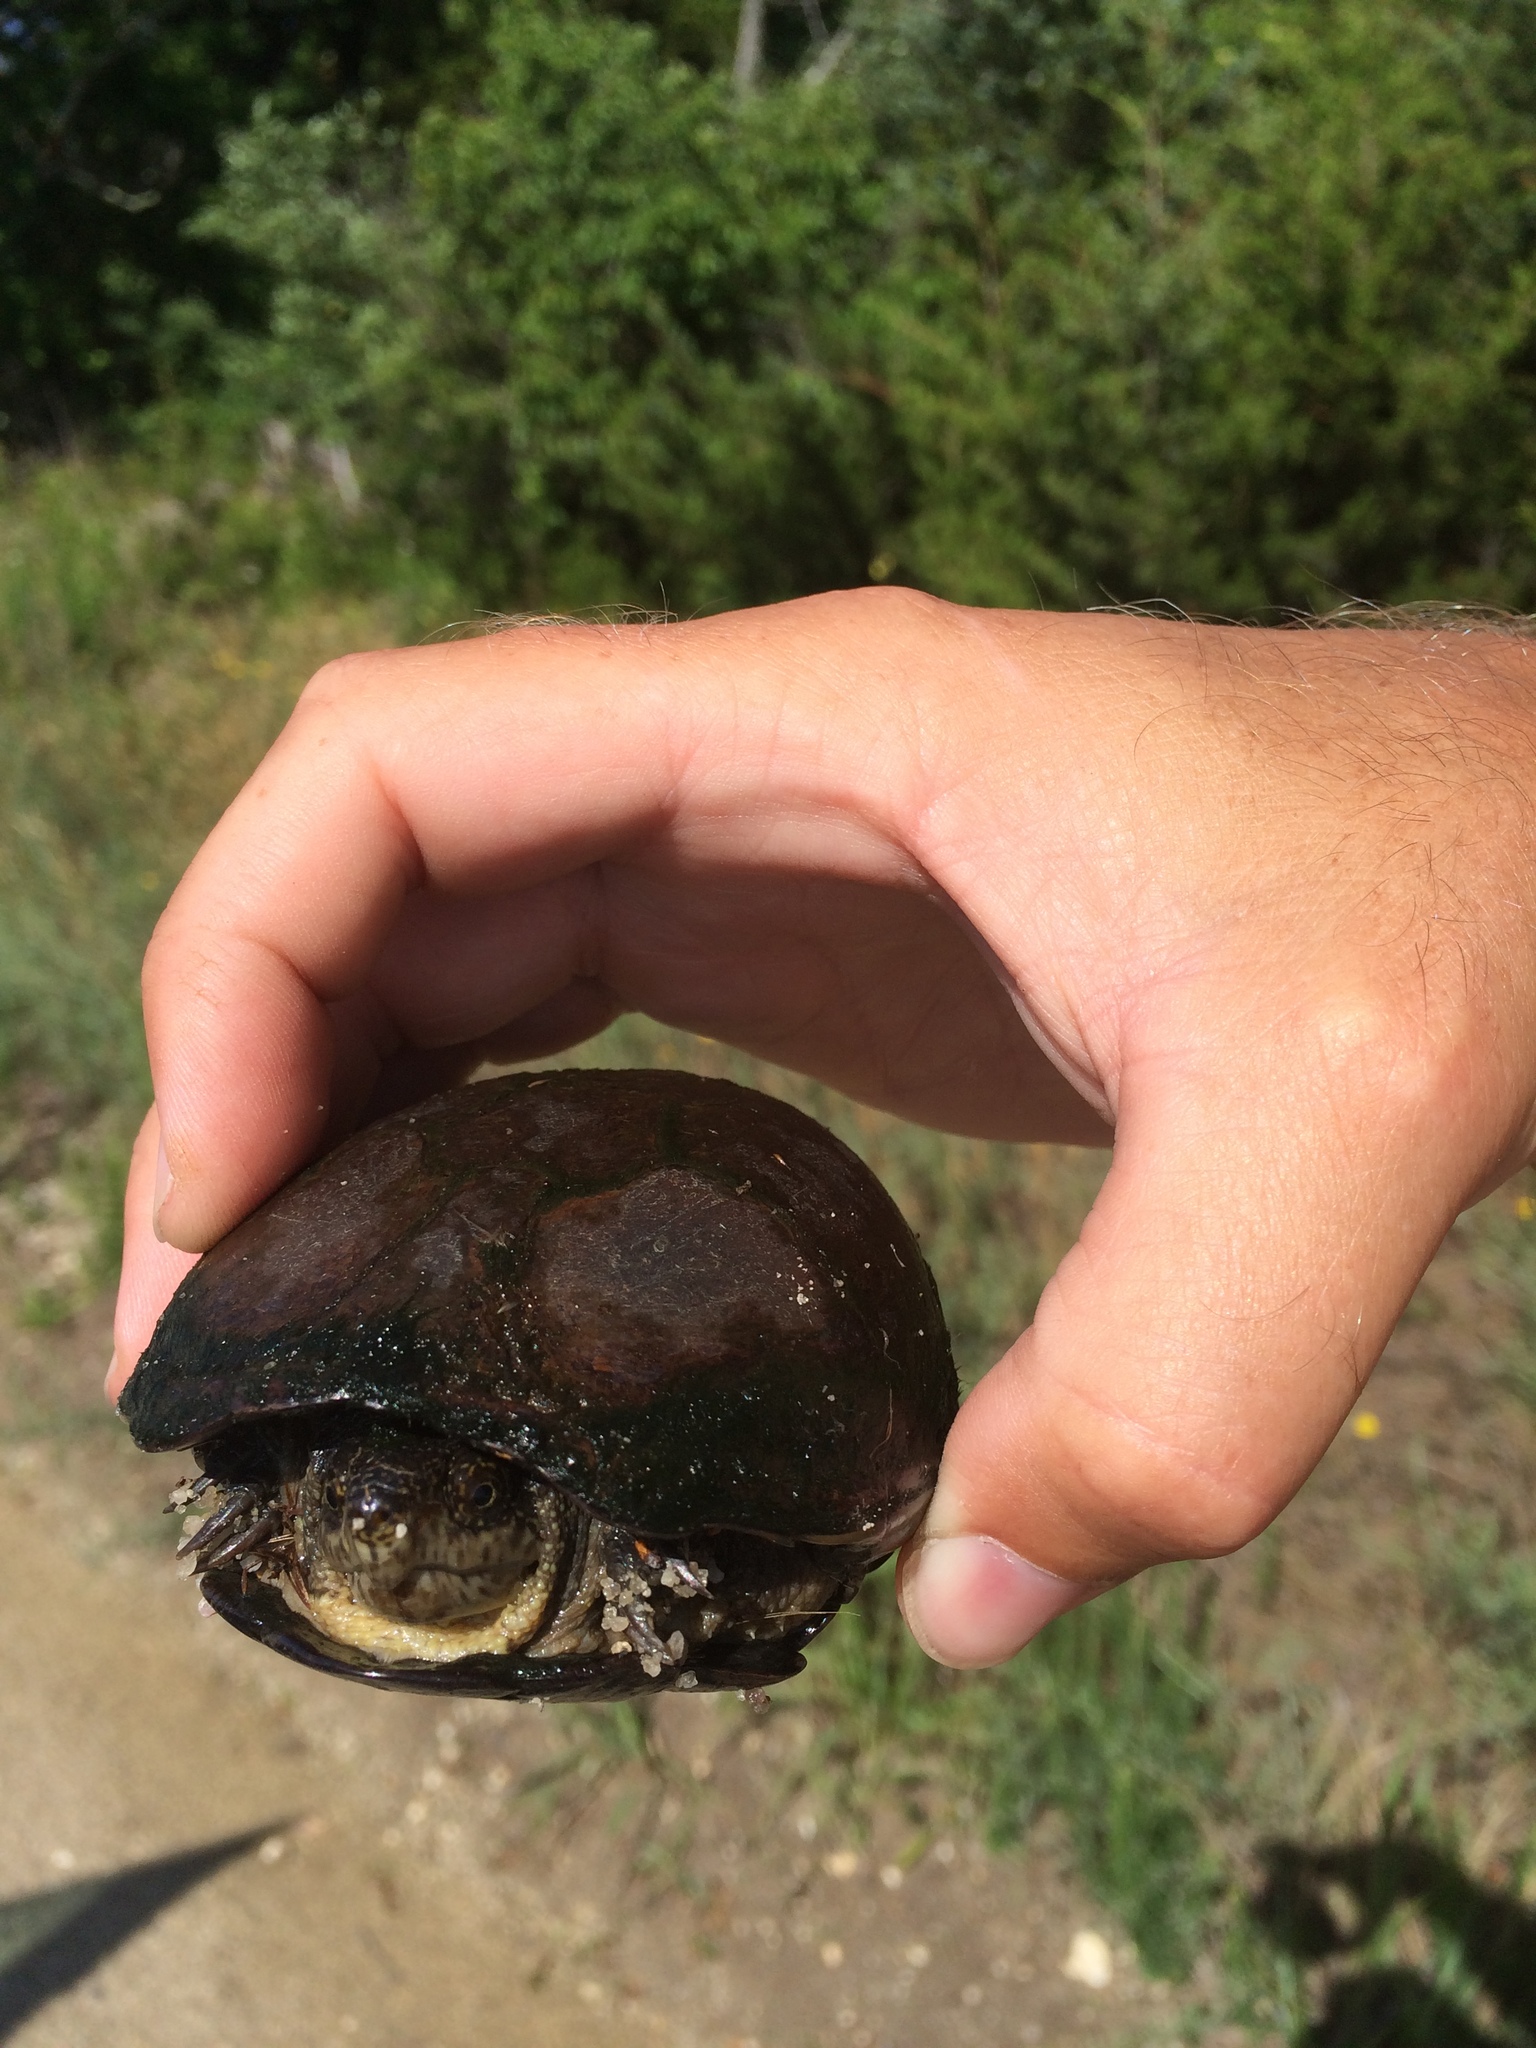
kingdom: Animalia
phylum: Chordata
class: Testudines
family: Kinosternidae
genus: Kinosternon
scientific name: Kinosternon subrubrum
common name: Eastern mud turtle
